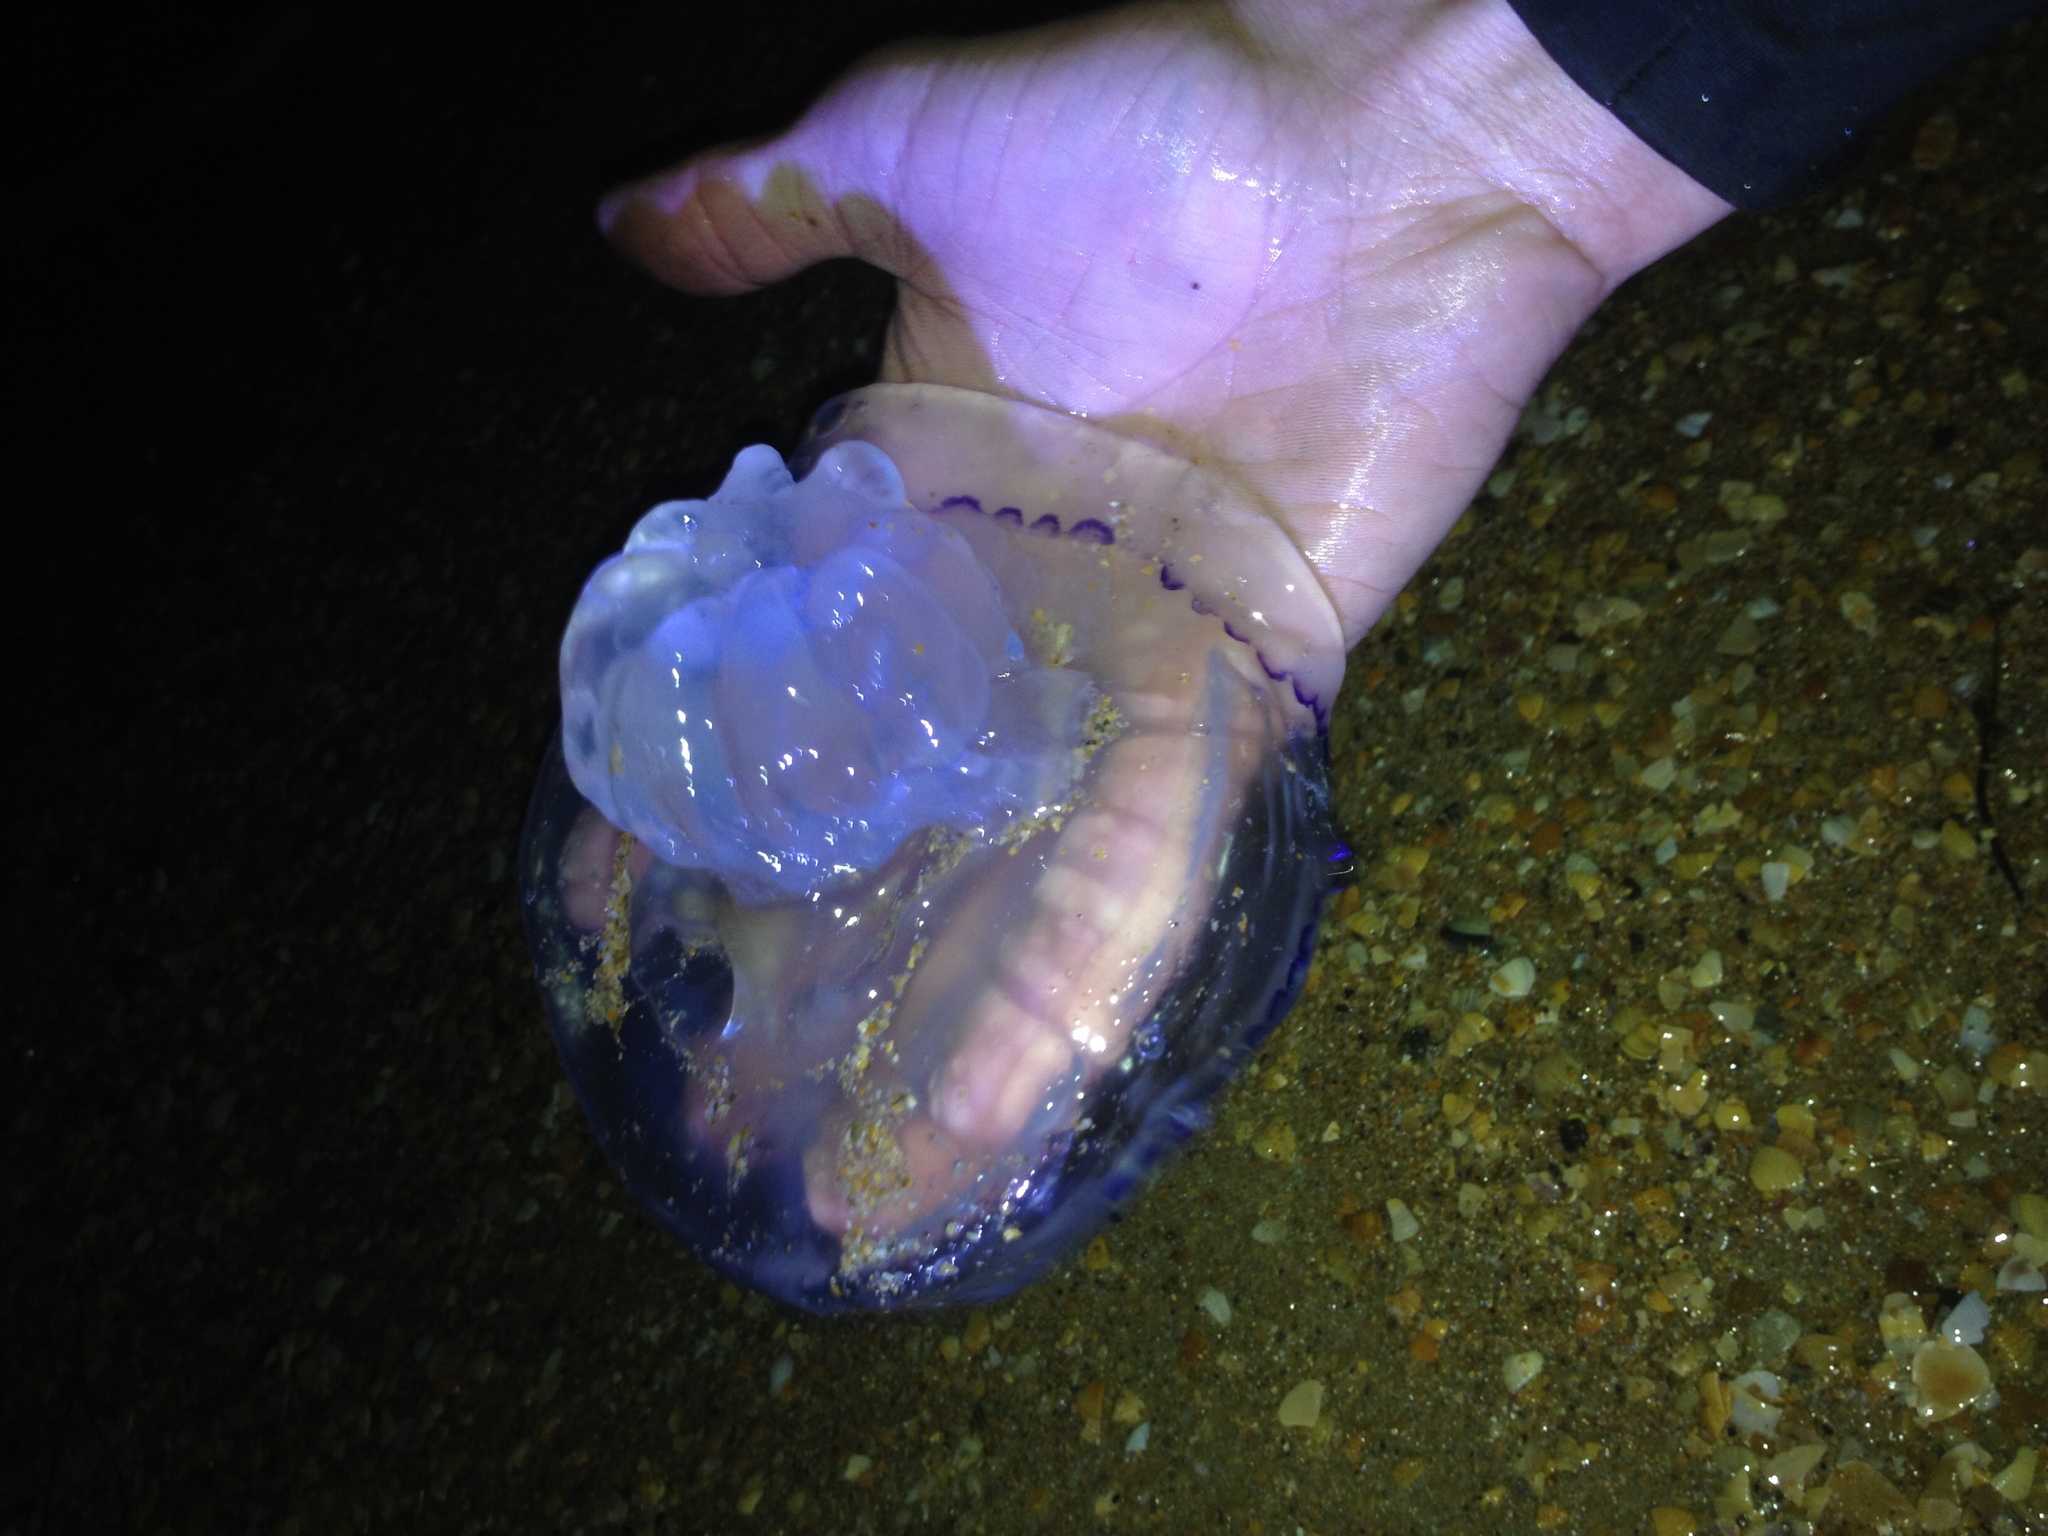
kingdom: Animalia
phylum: Cnidaria
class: Scyphozoa
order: Rhizostomeae
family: Rhizostomatidae
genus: Rhizostoma
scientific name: Rhizostoma pulmo
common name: Barrel jellyfish
